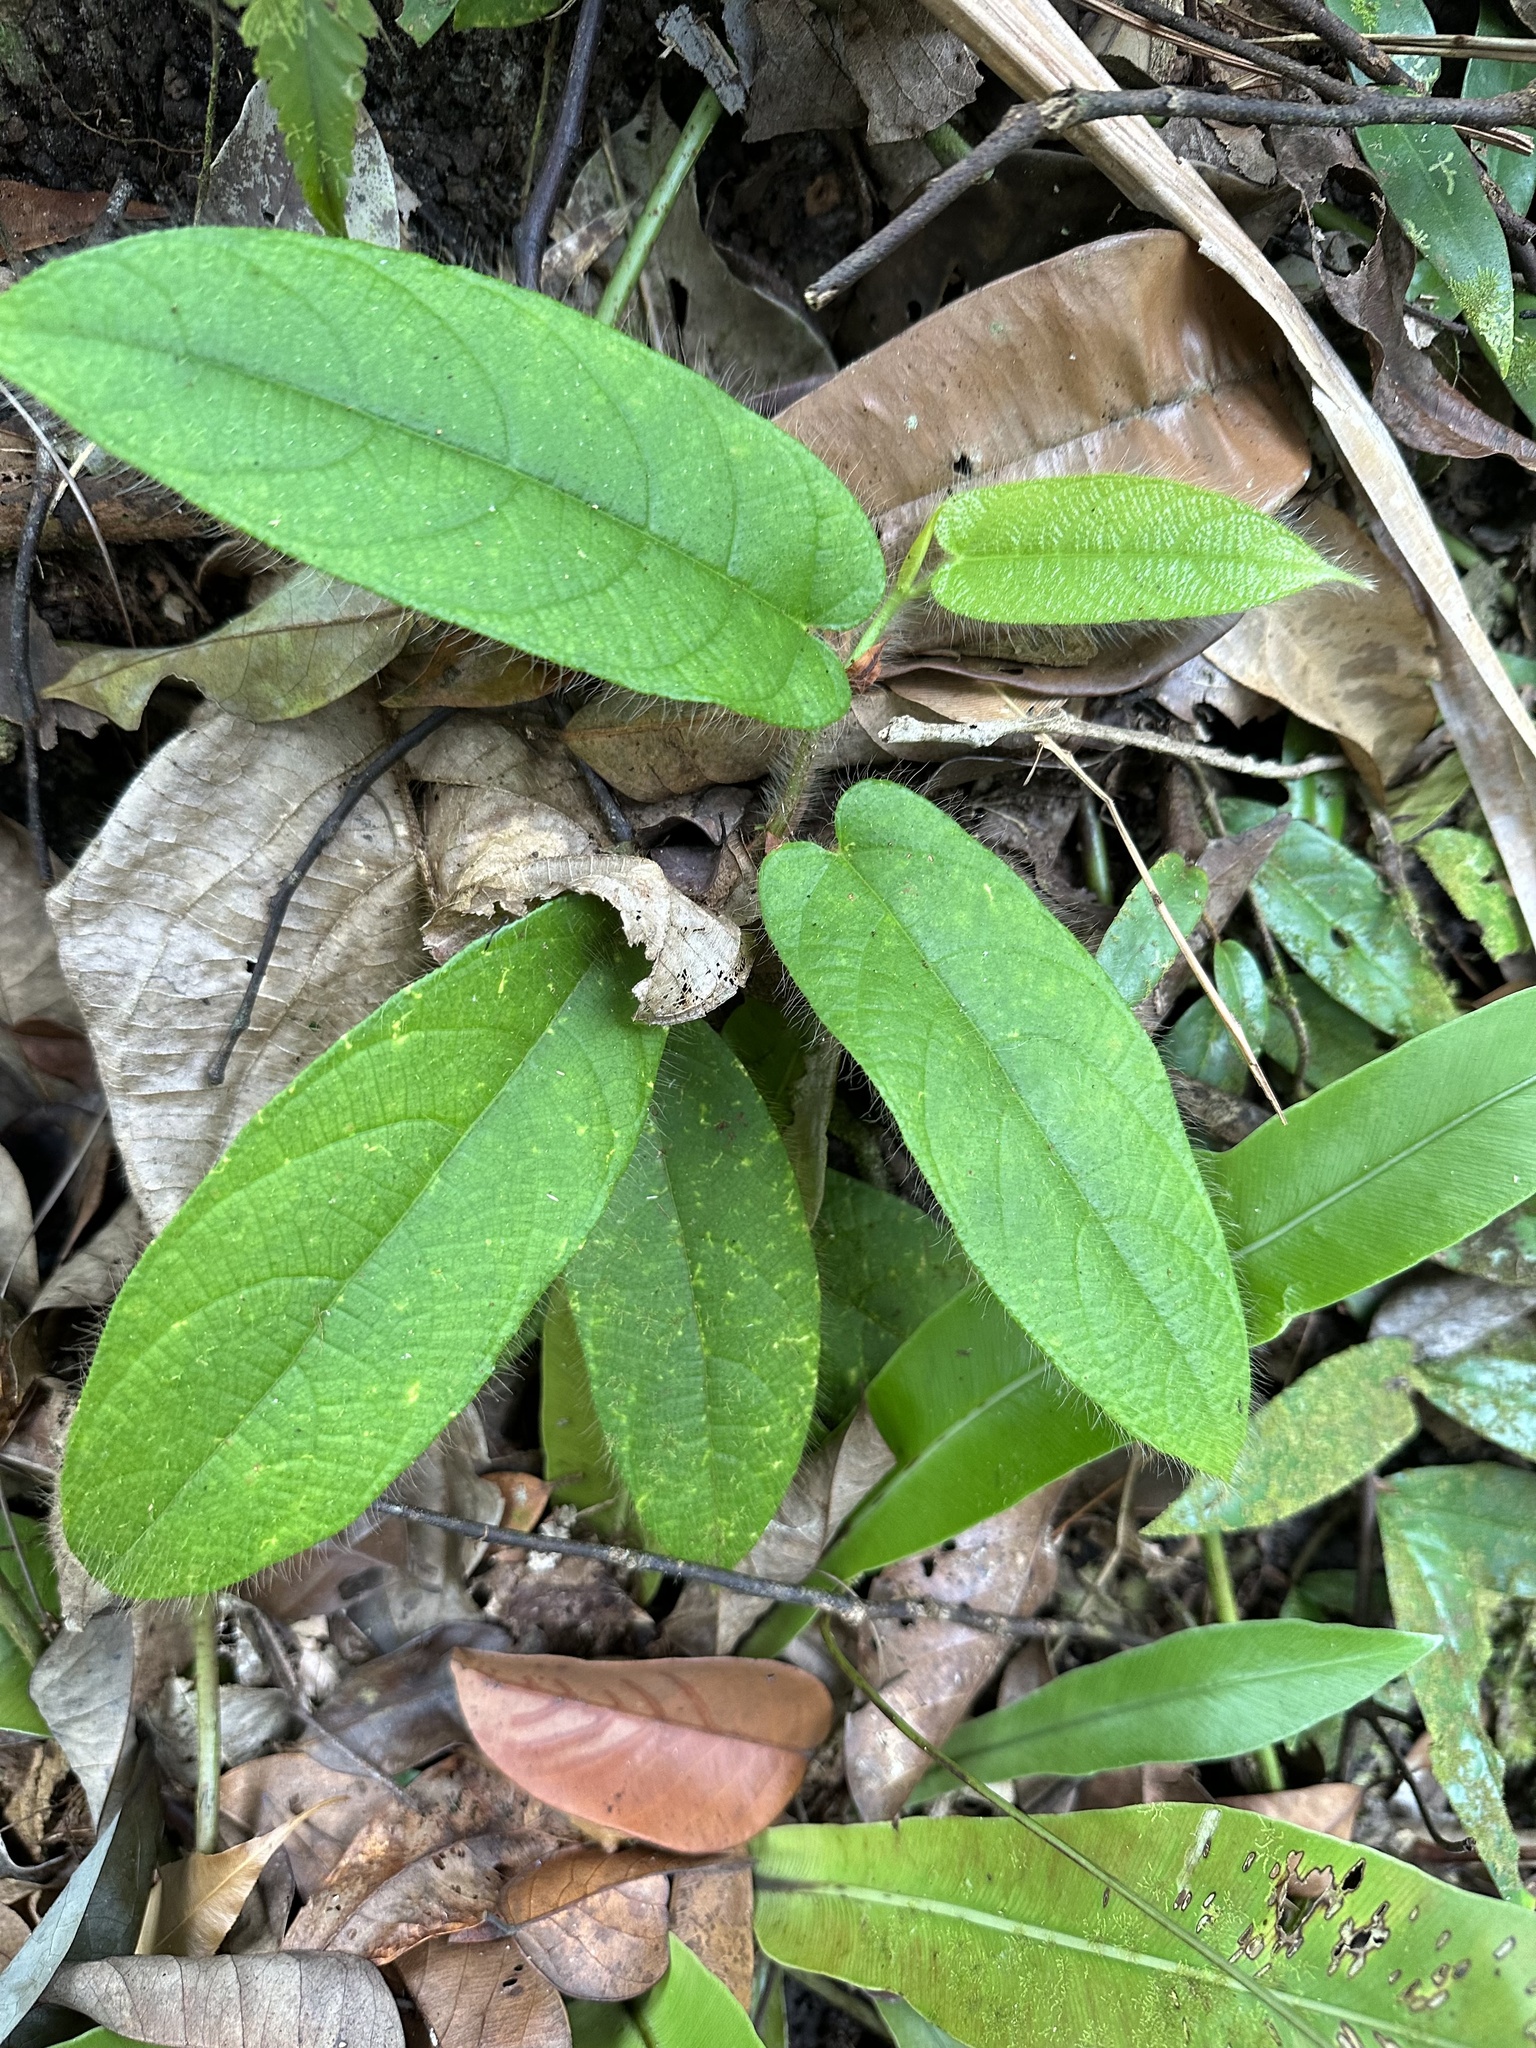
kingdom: Plantae
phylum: Tracheophyta
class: Magnoliopsida
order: Rosales
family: Moraceae
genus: Ficus
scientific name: Ficus sagittata
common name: Trailing fig
